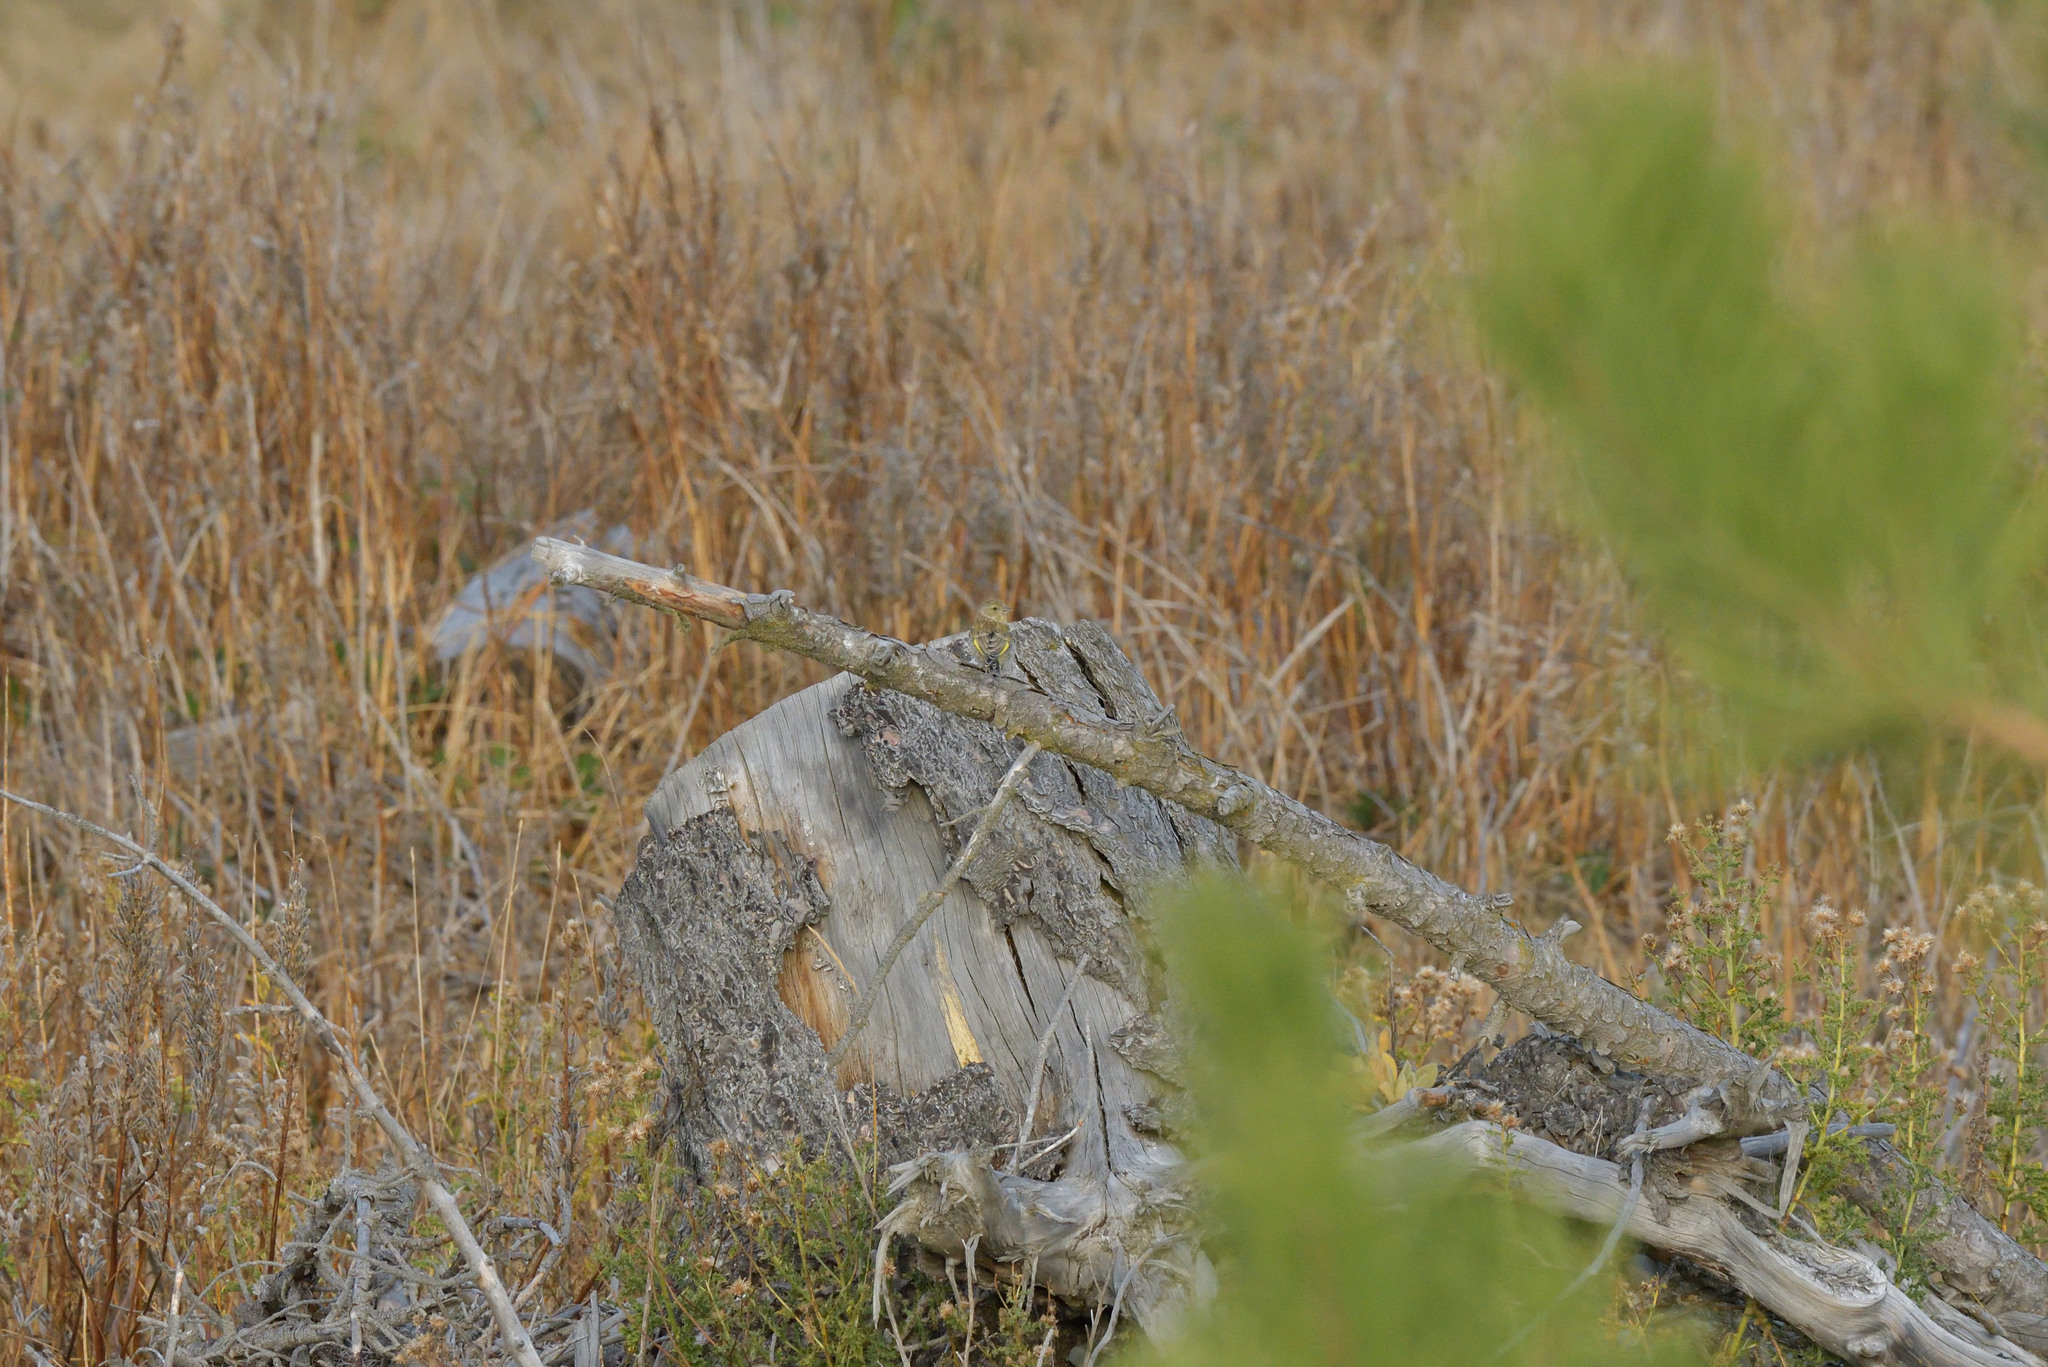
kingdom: Plantae
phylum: Tracheophyta
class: Liliopsida
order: Poales
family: Poaceae
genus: Chloris
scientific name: Chloris chloris
